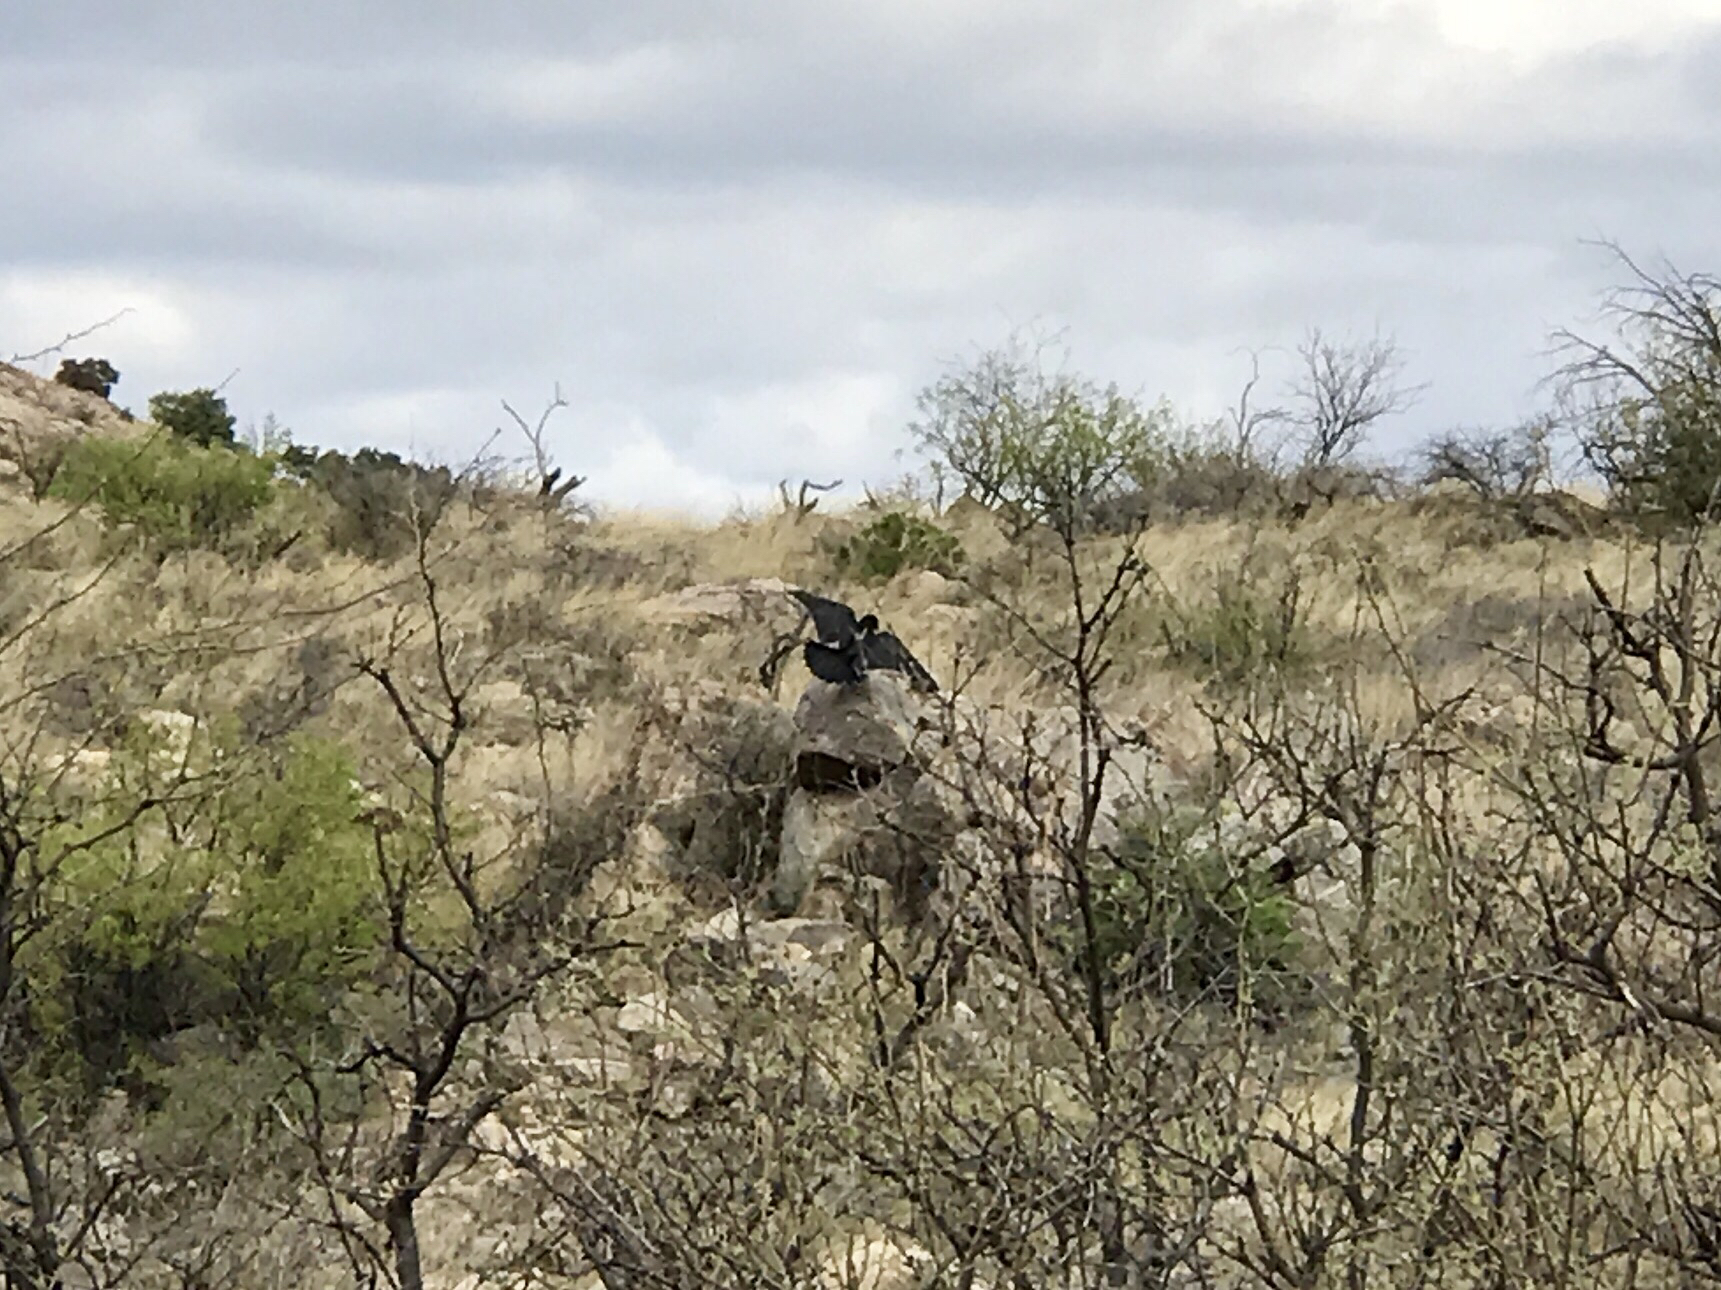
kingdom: Animalia
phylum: Chordata
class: Aves
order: Passeriformes
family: Corvidae
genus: Corvus
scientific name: Corvus corax
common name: Common raven
